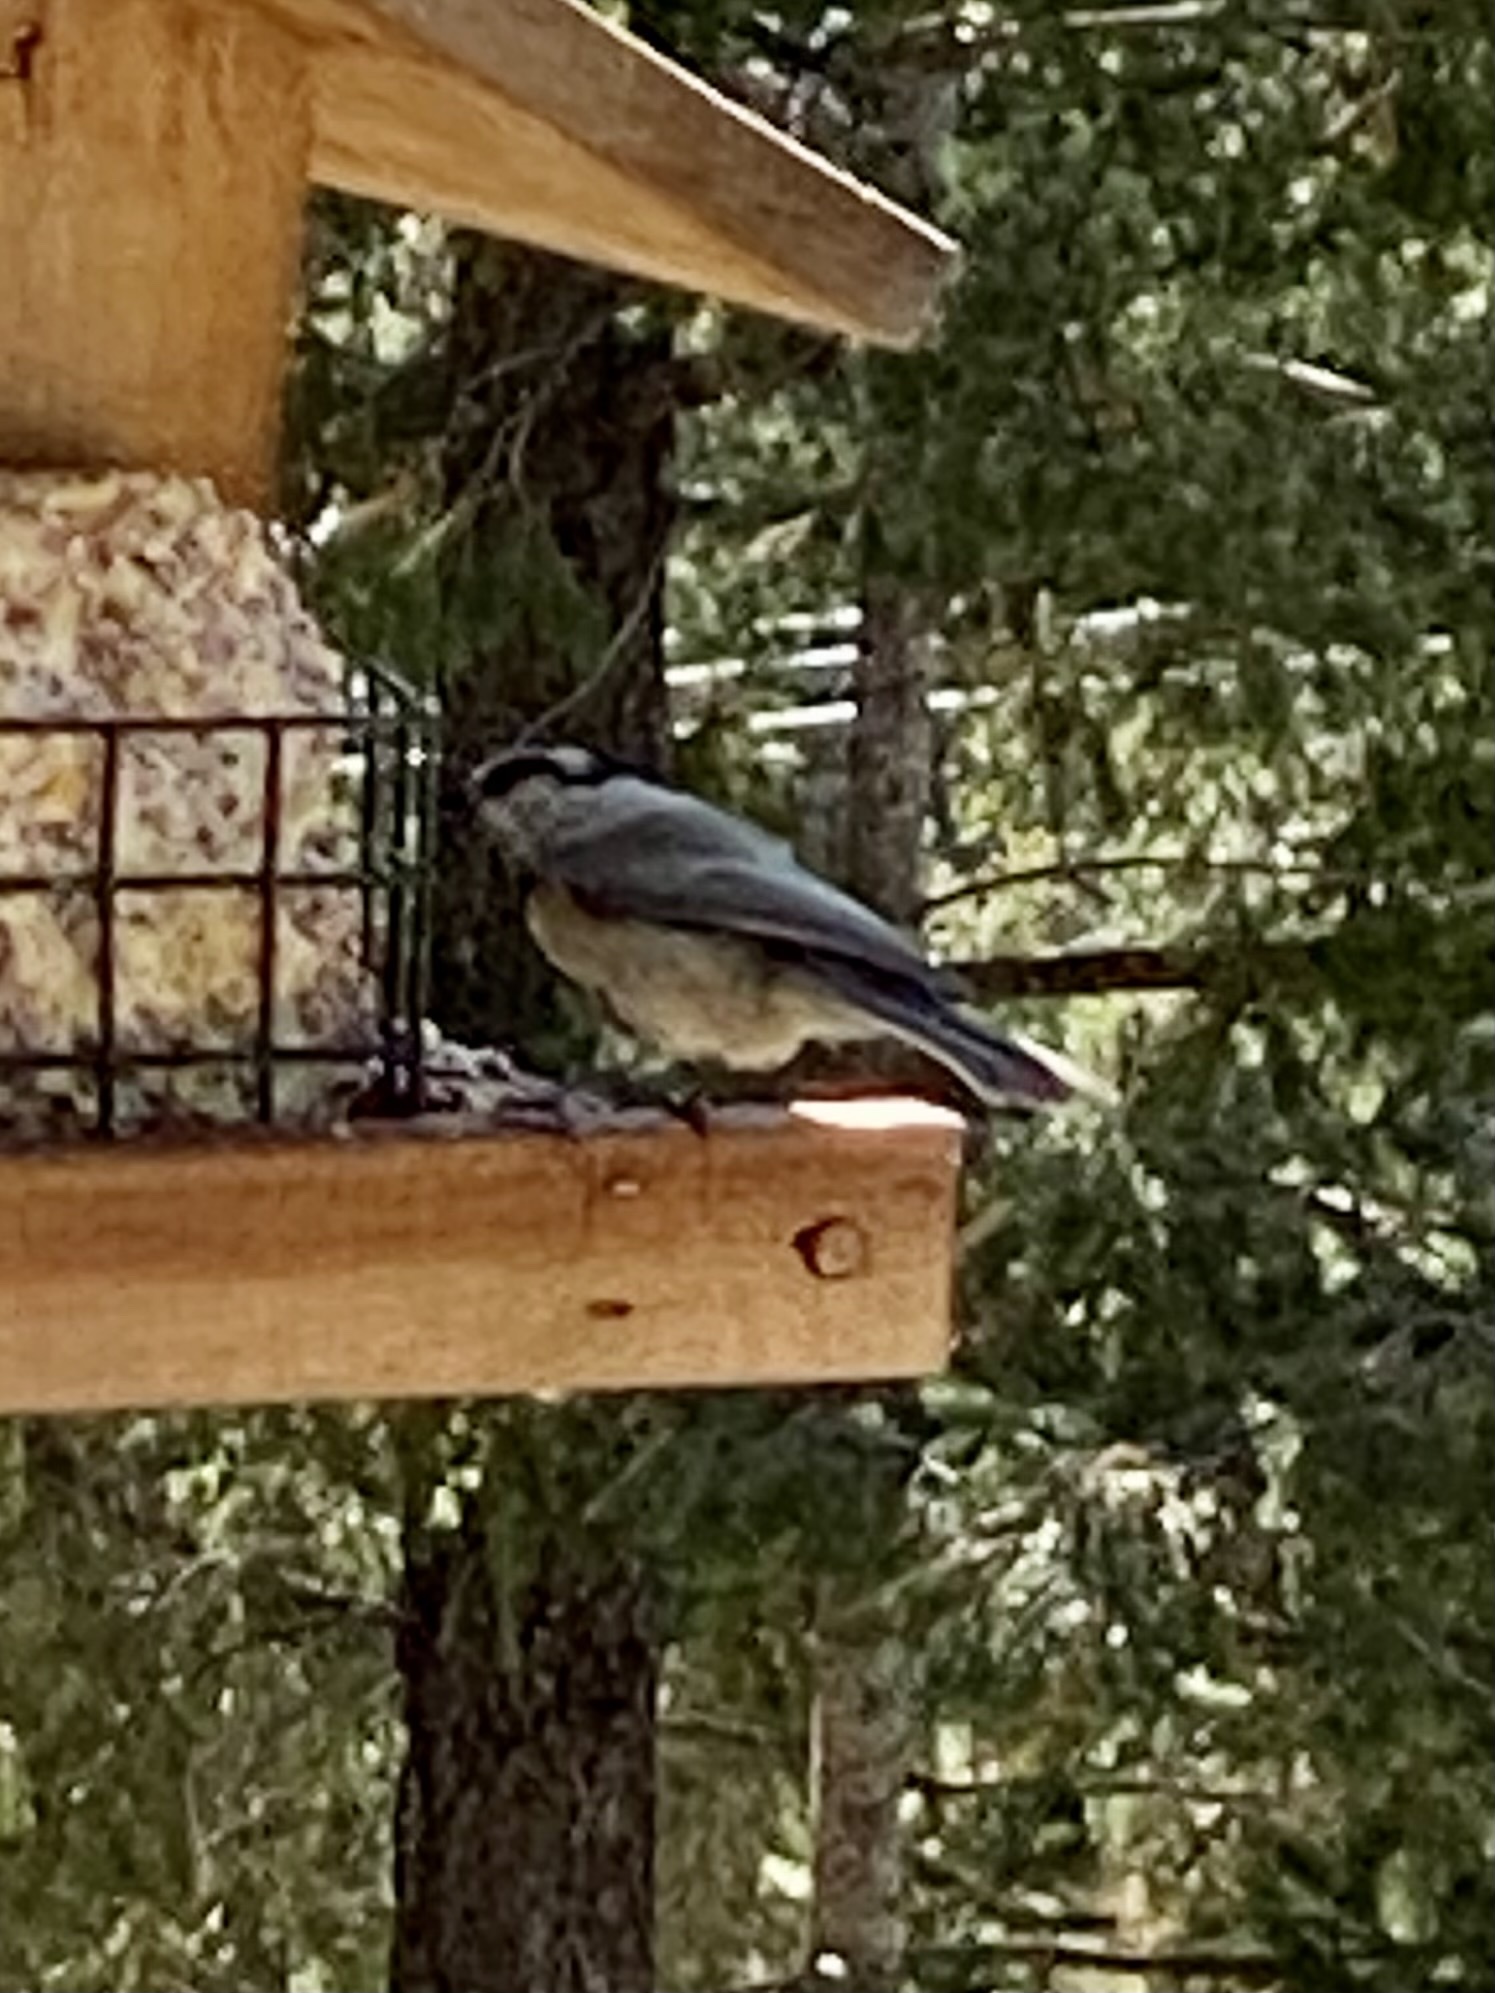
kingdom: Animalia
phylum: Chordata
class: Aves
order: Passeriformes
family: Paridae
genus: Poecile
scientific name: Poecile gambeli
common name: Mountain chickadee
